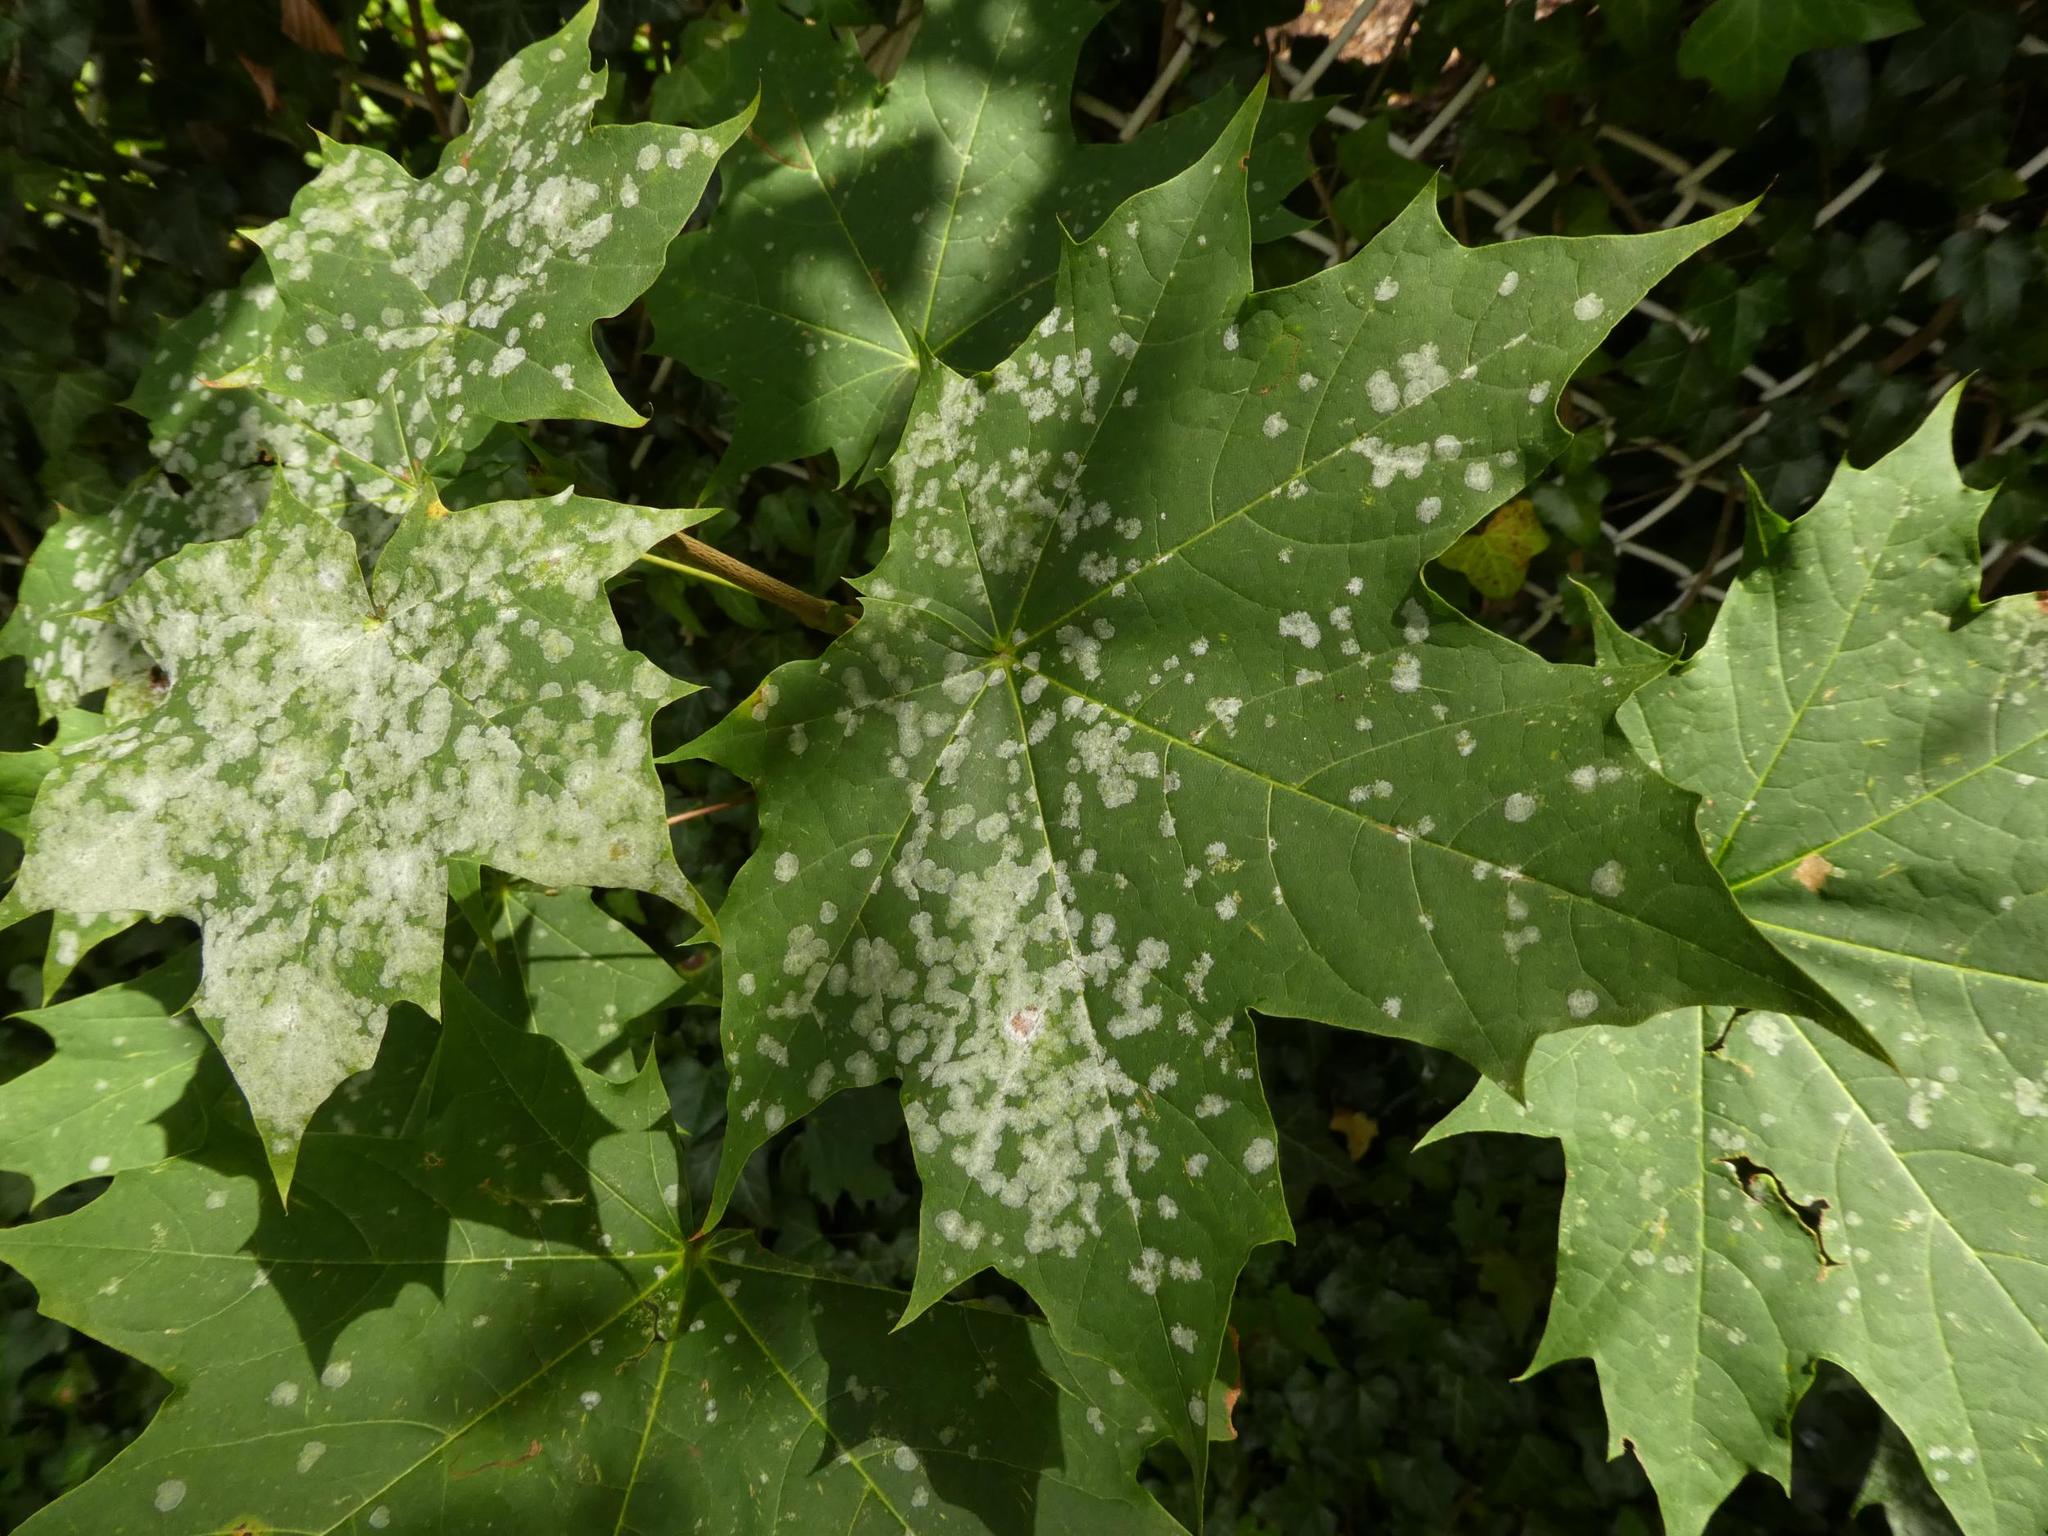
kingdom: Fungi
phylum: Ascomycota
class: Leotiomycetes
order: Helotiales
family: Erysiphaceae
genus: Sawadaea
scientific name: Sawadaea tulasnei
